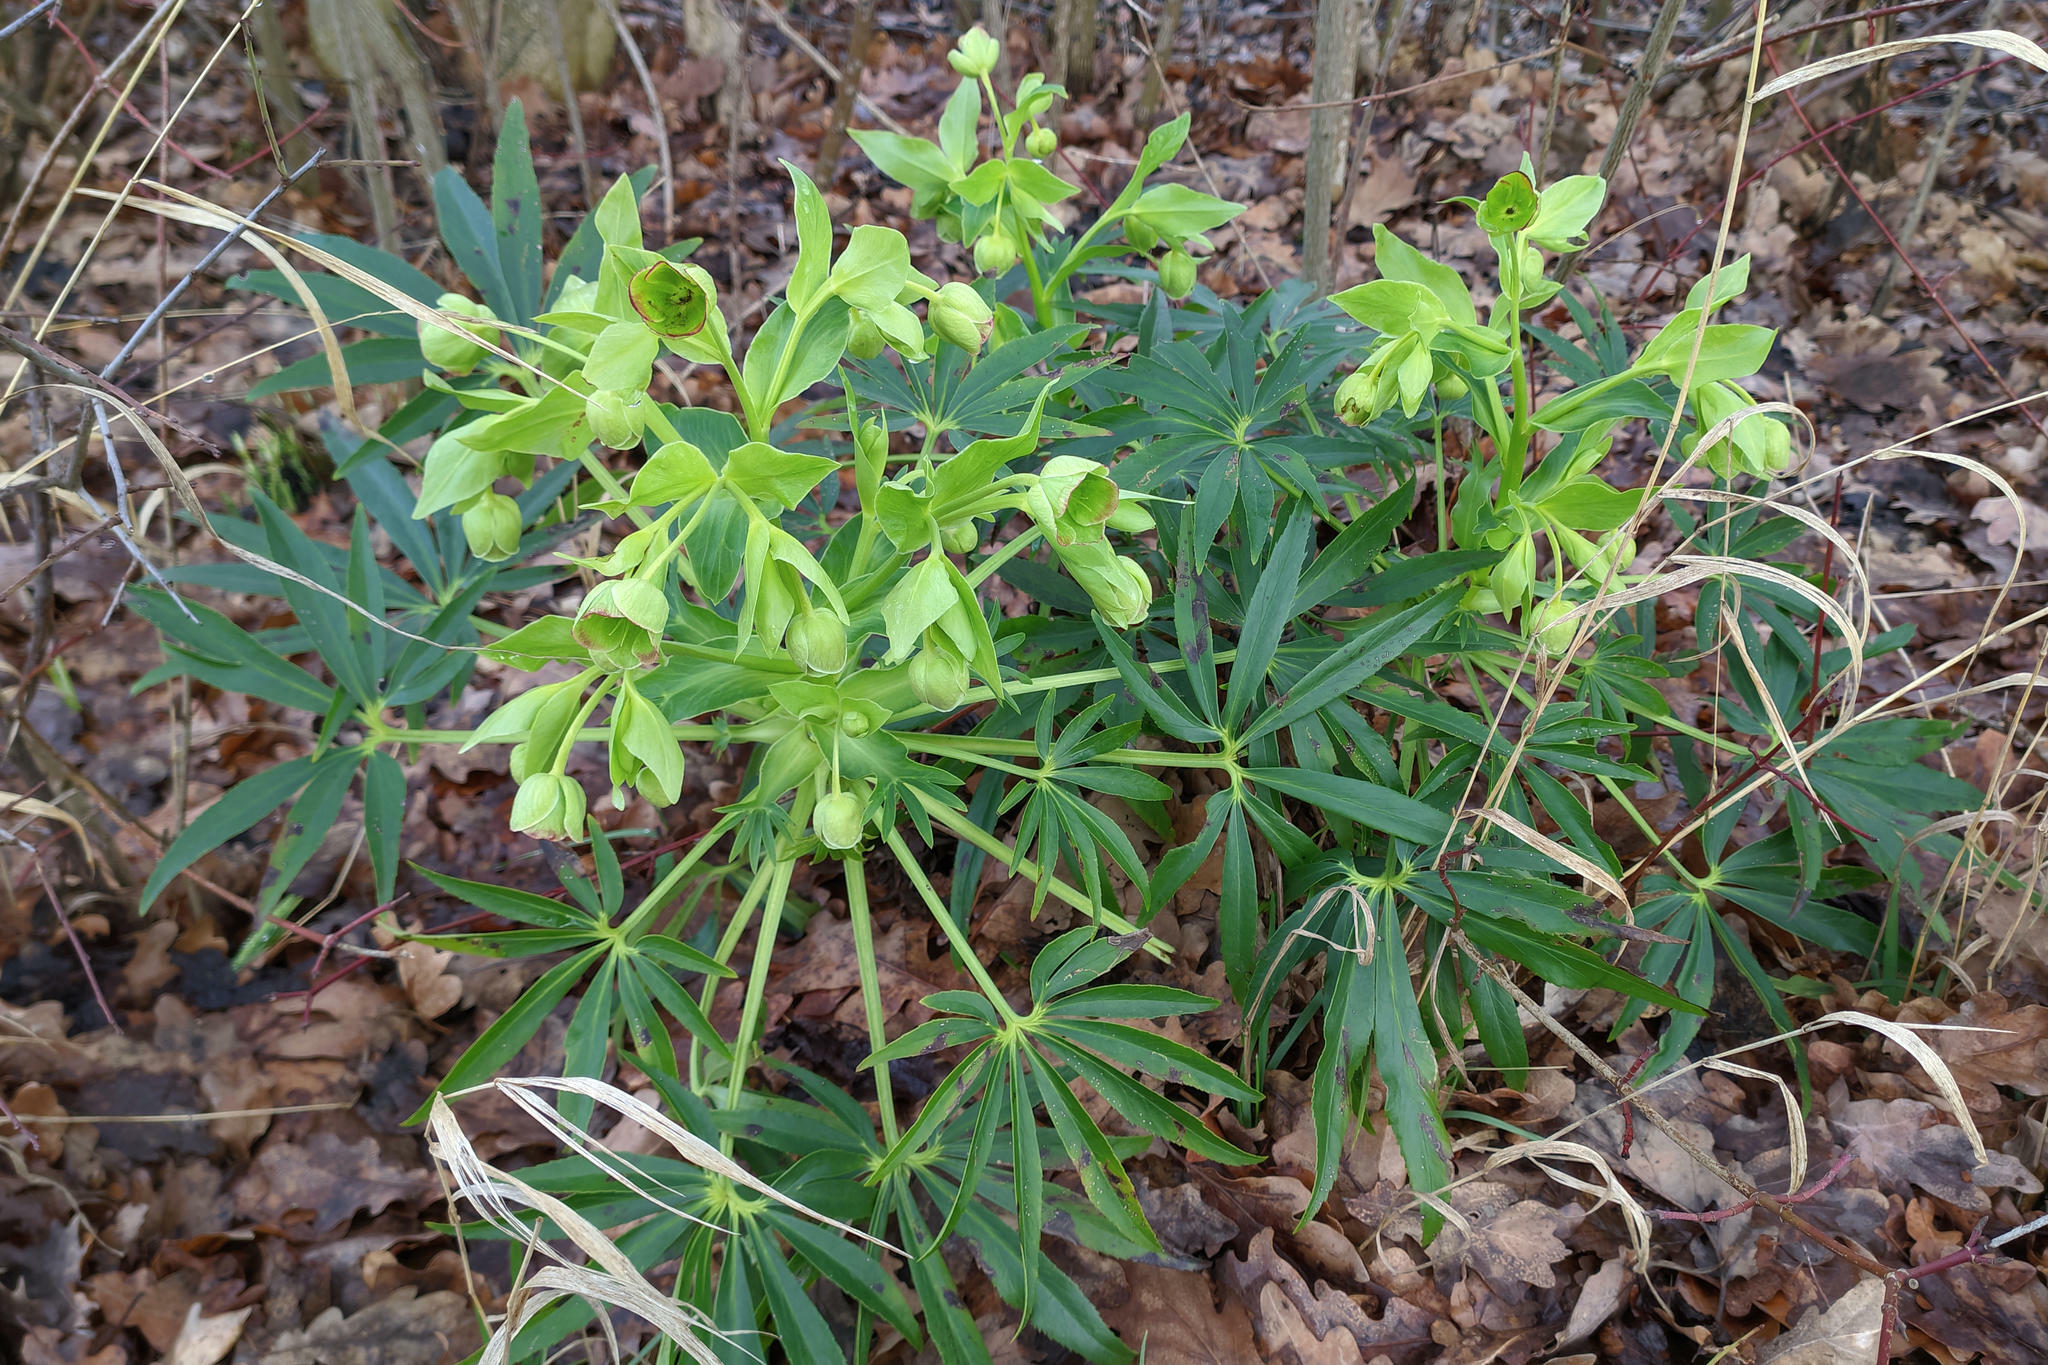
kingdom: Plantae
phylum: Tracheophyta
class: Magnoliopsida
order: Ranunculales
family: Ranunculaceae
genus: Helleborus
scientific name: Helleborus foetidus
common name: Stinking hellebore
